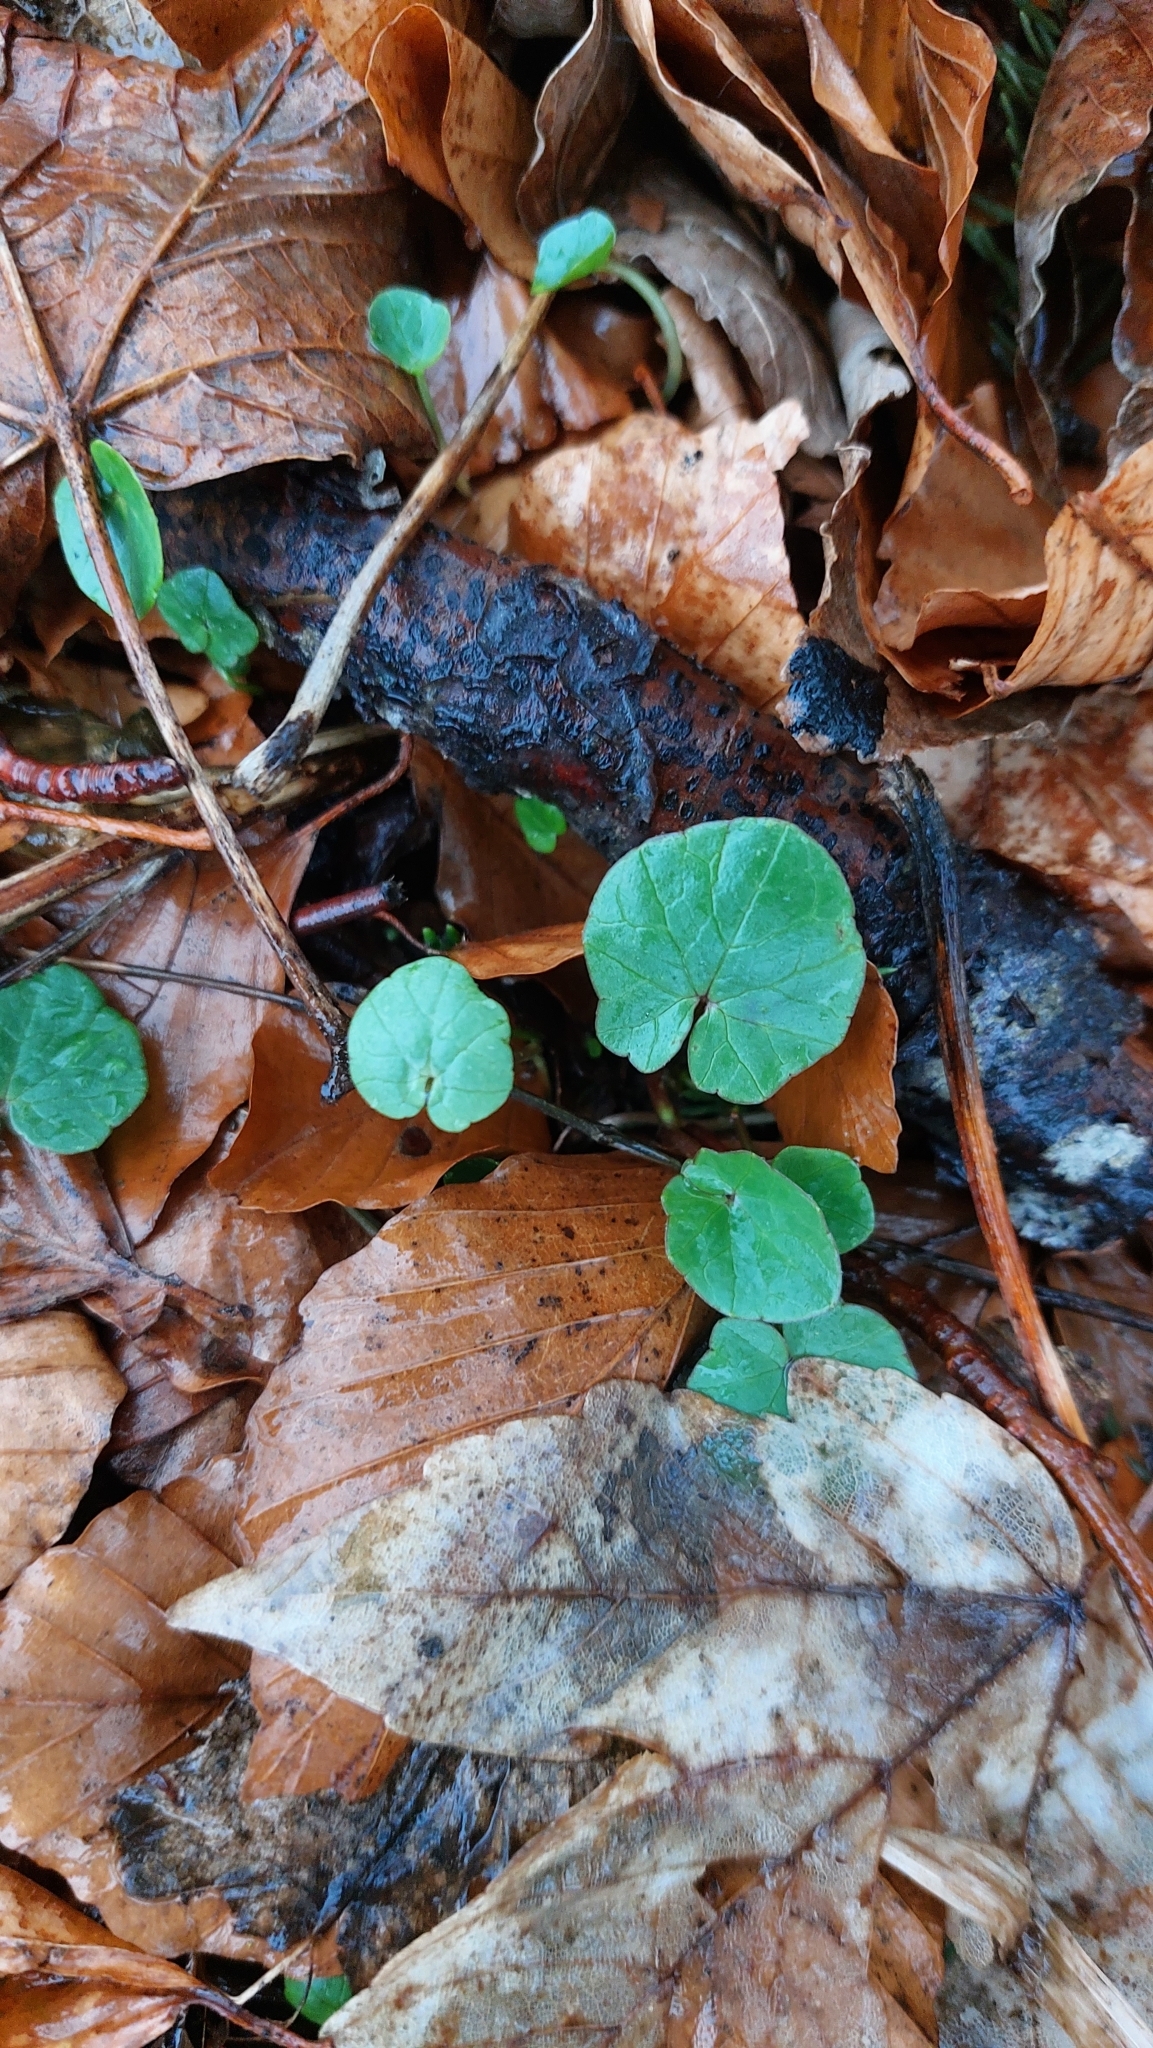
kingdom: Plantae
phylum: Tracheophyta
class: Magnoliopsida
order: Ranunculales
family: Ranunculaceae
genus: Ficaria
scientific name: Ficaria verna
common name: Lesser celandine
